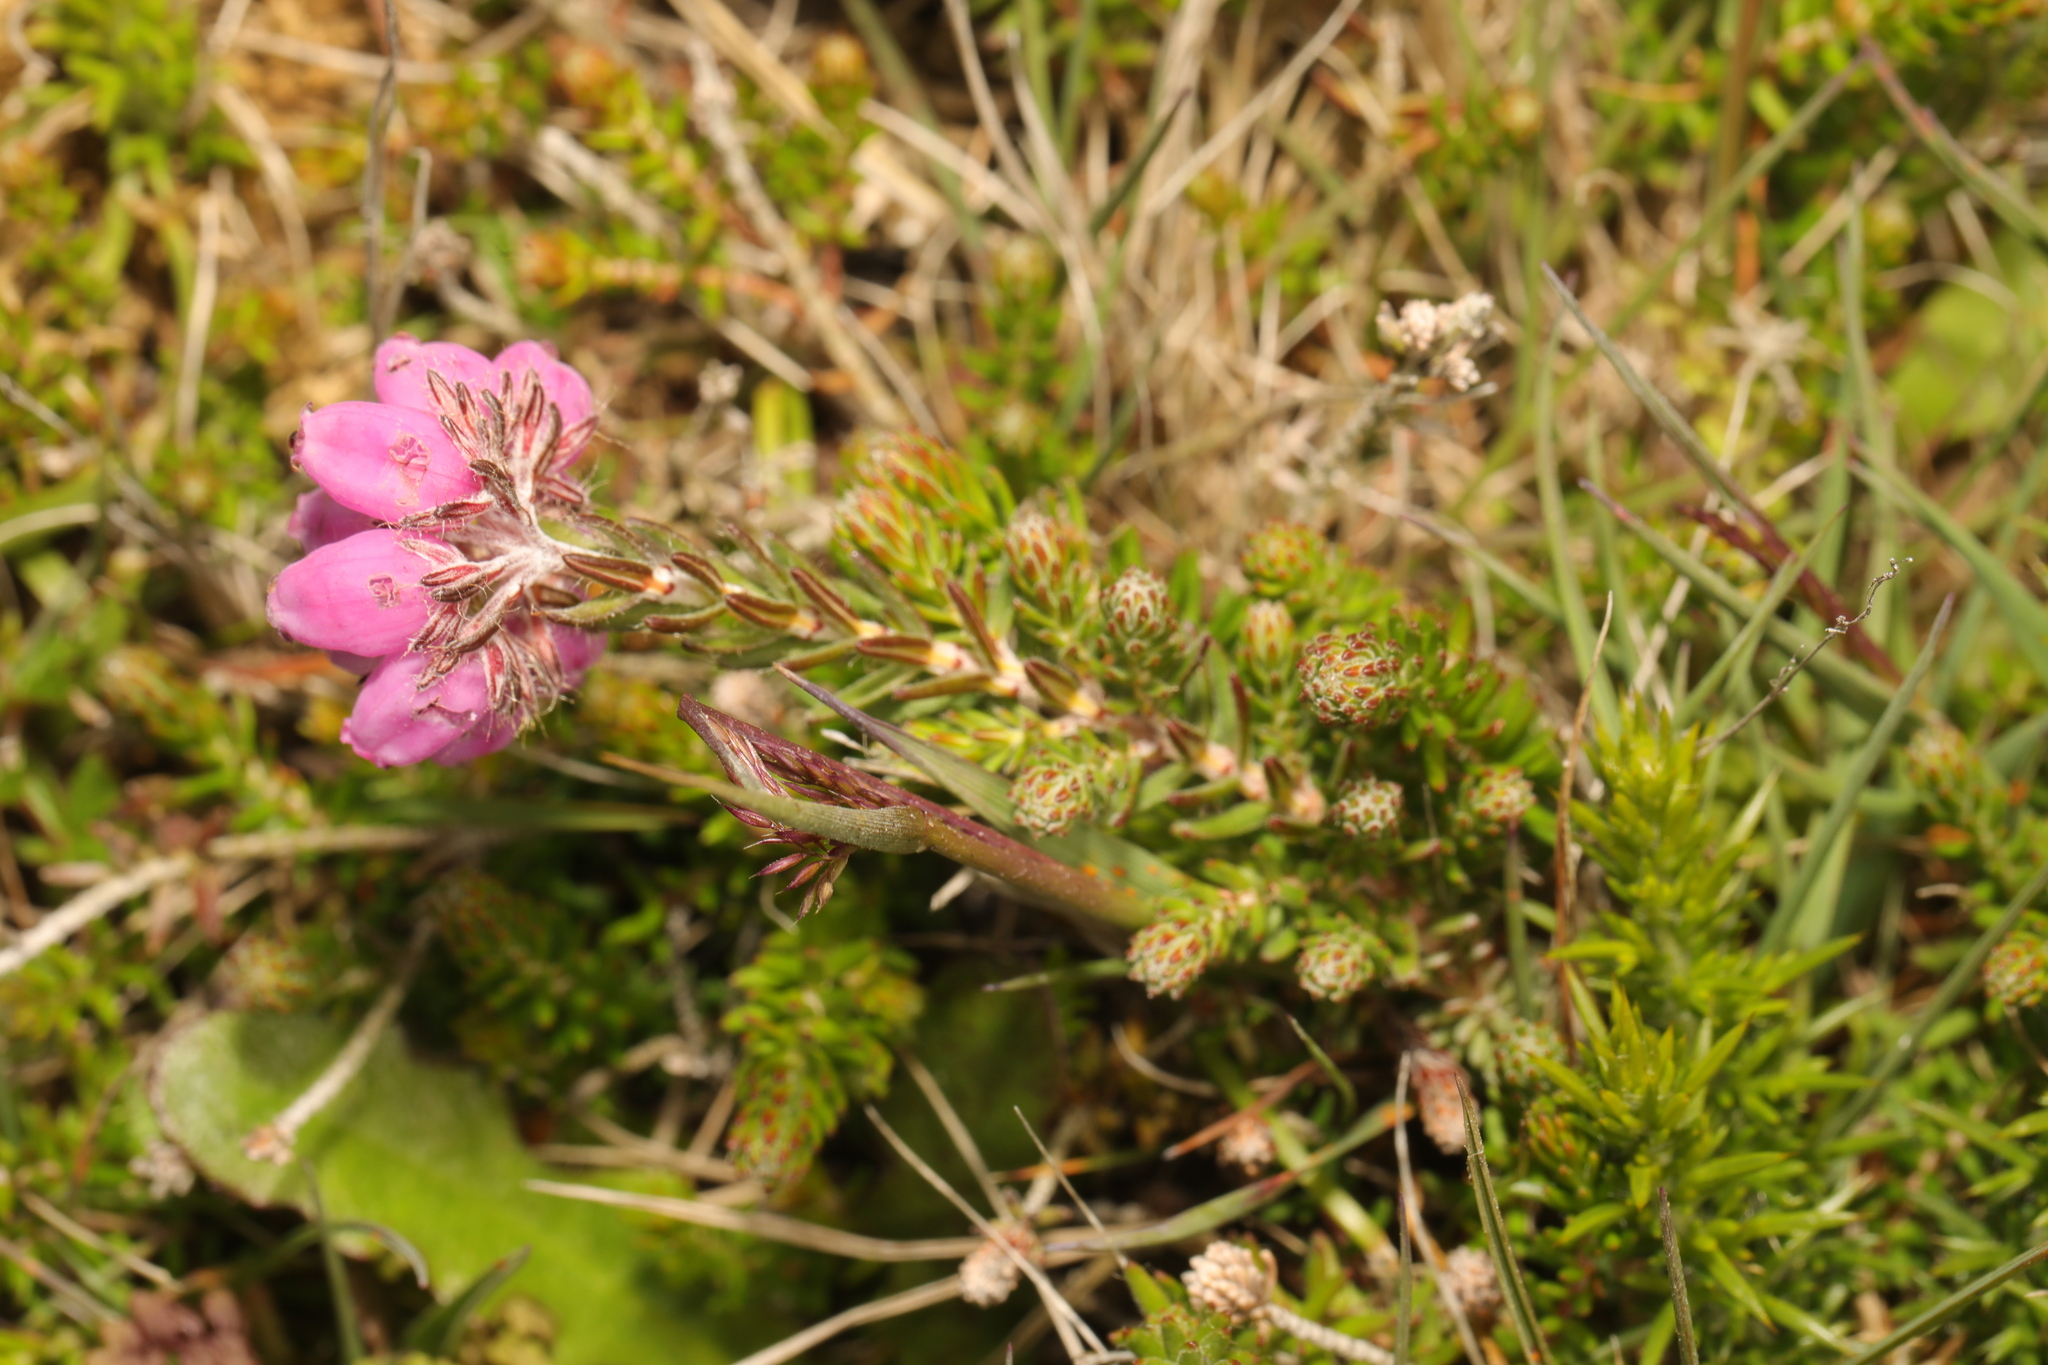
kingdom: Plantae
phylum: Tracheophyta
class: Magnoliopsida
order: Ericales
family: Ericaceae
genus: Erica
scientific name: Erica tetralix
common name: Cross-leaved heath
